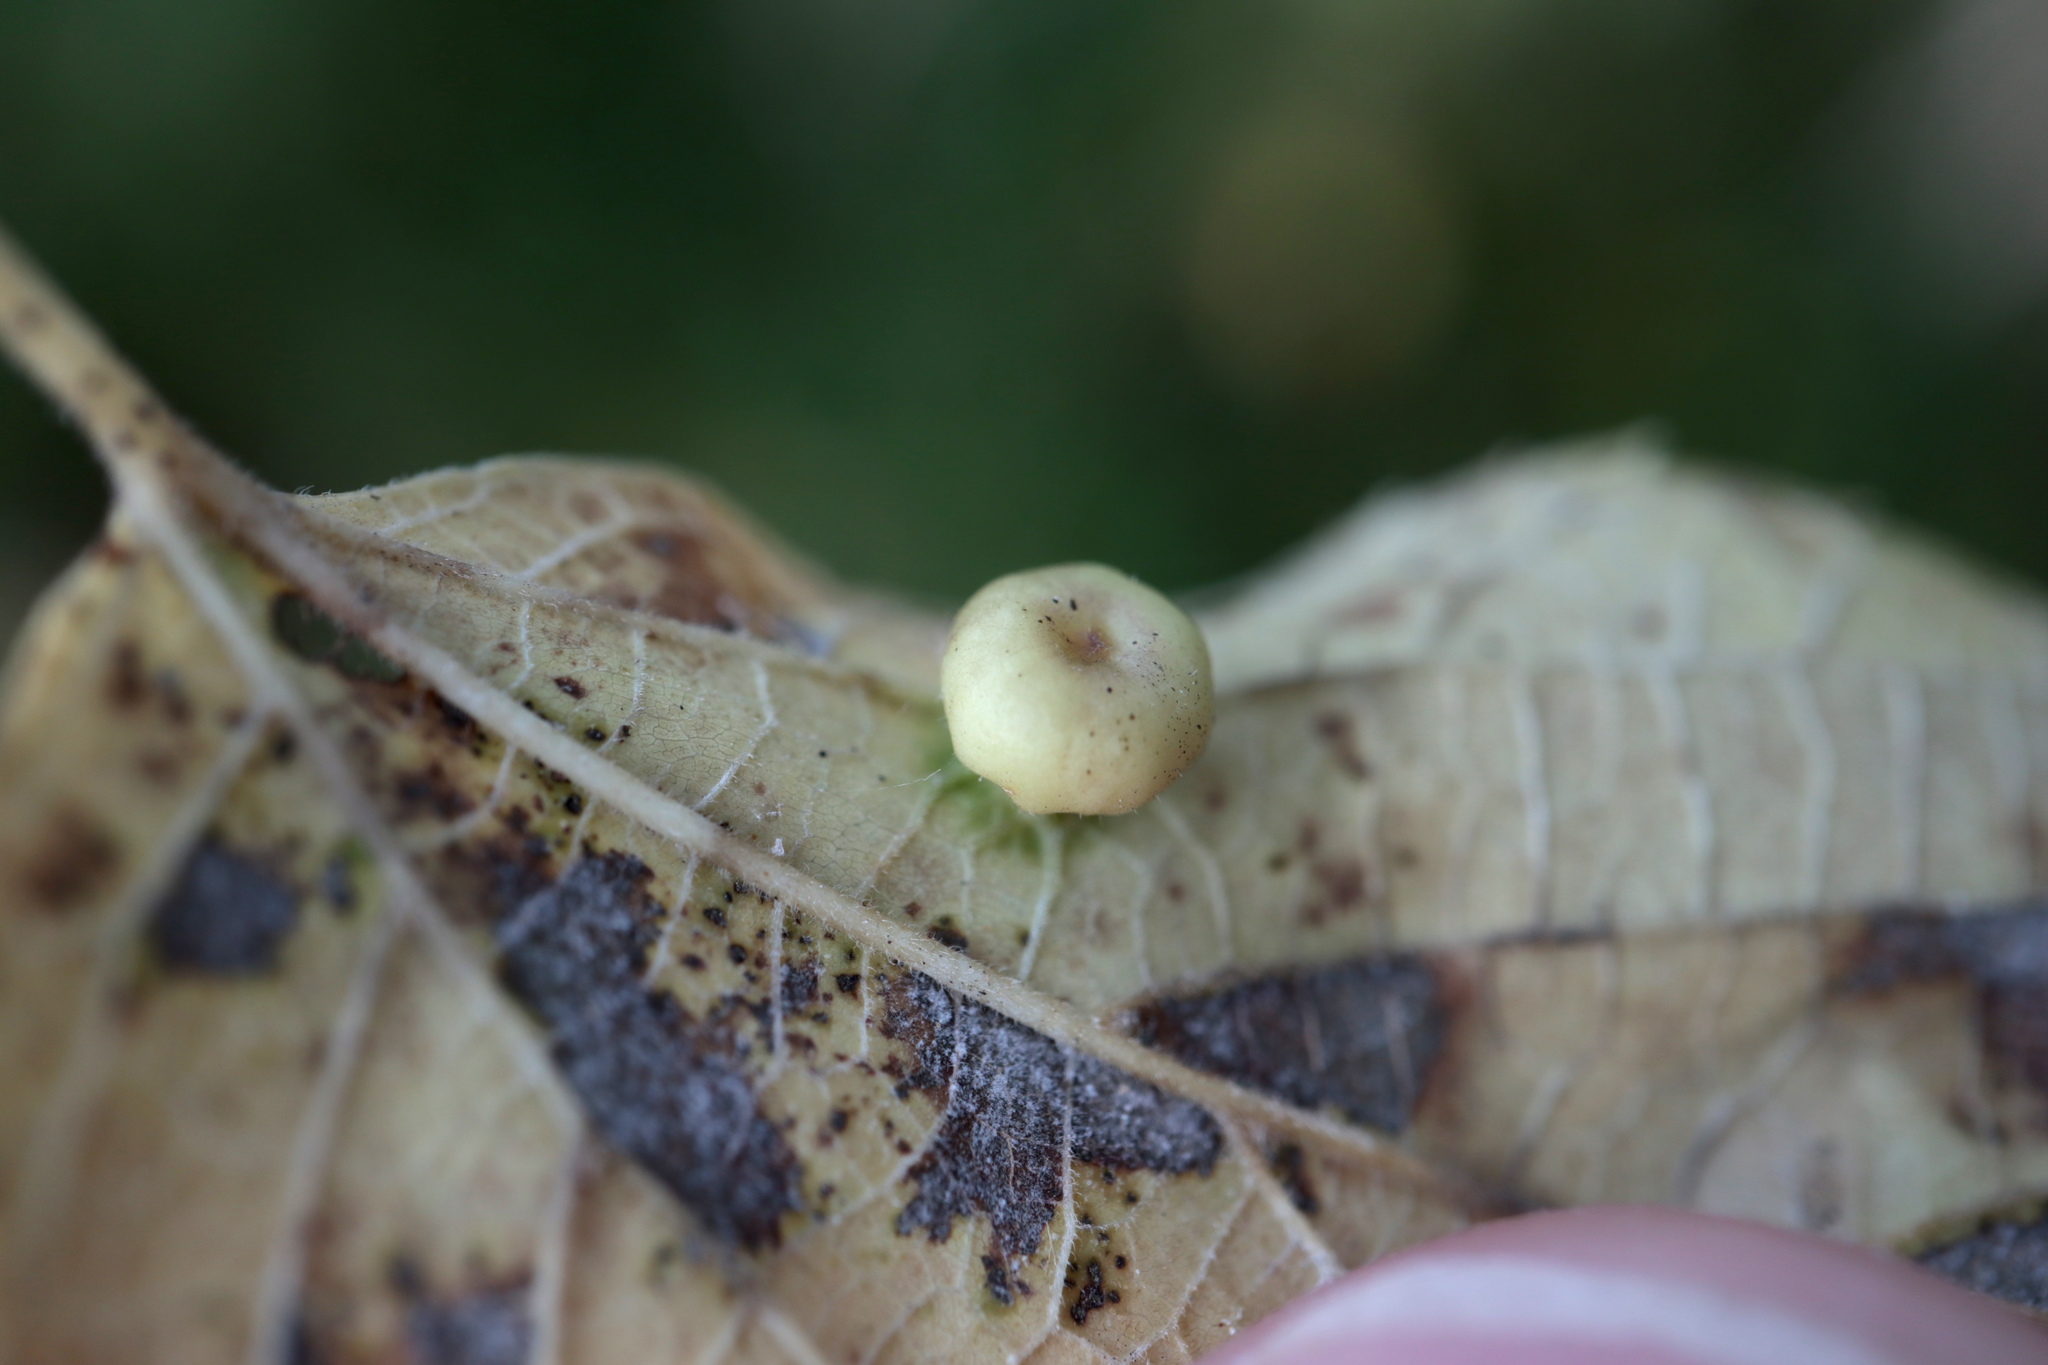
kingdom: Animalia
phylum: Arthropoda
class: Insecta
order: Hemiptera
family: Aphalaridae
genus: Pachypsylla
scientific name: Pachypsylla celtidismamma
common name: Hackberry nipplegall psyllid
